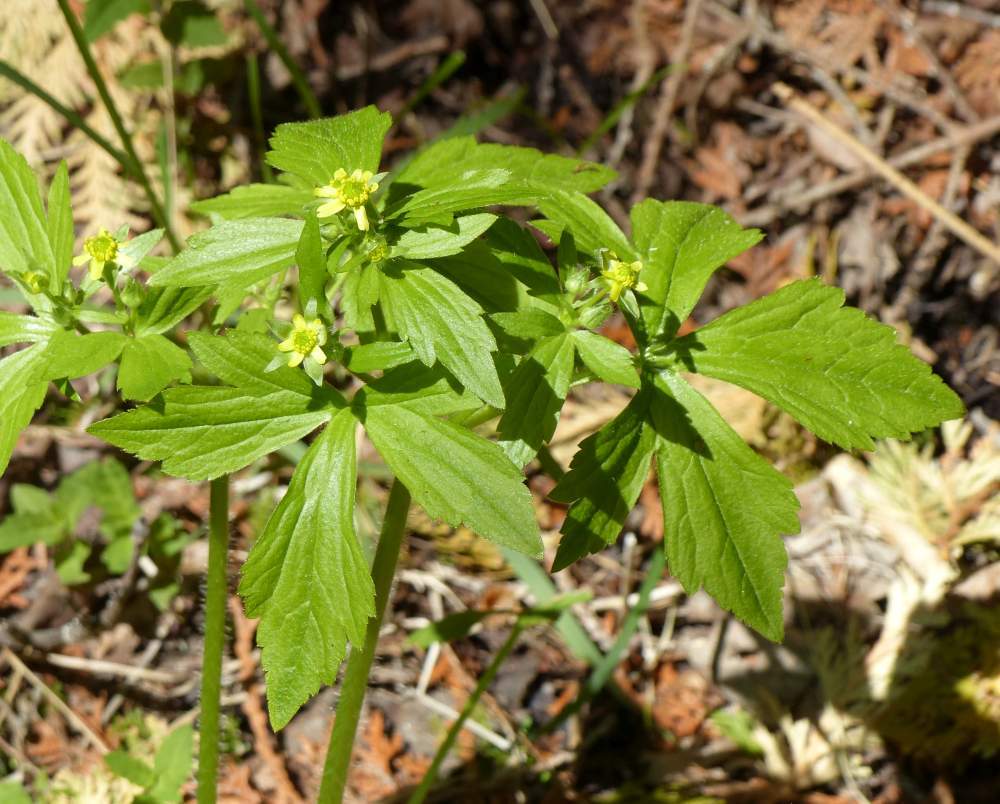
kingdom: Plantae
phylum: Tracheophyta
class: Magnoliopsida
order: Ranunculales
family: Ranunculaceae
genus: Ranunculus
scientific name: Ranunculus recurvatus
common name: Blisterwort
